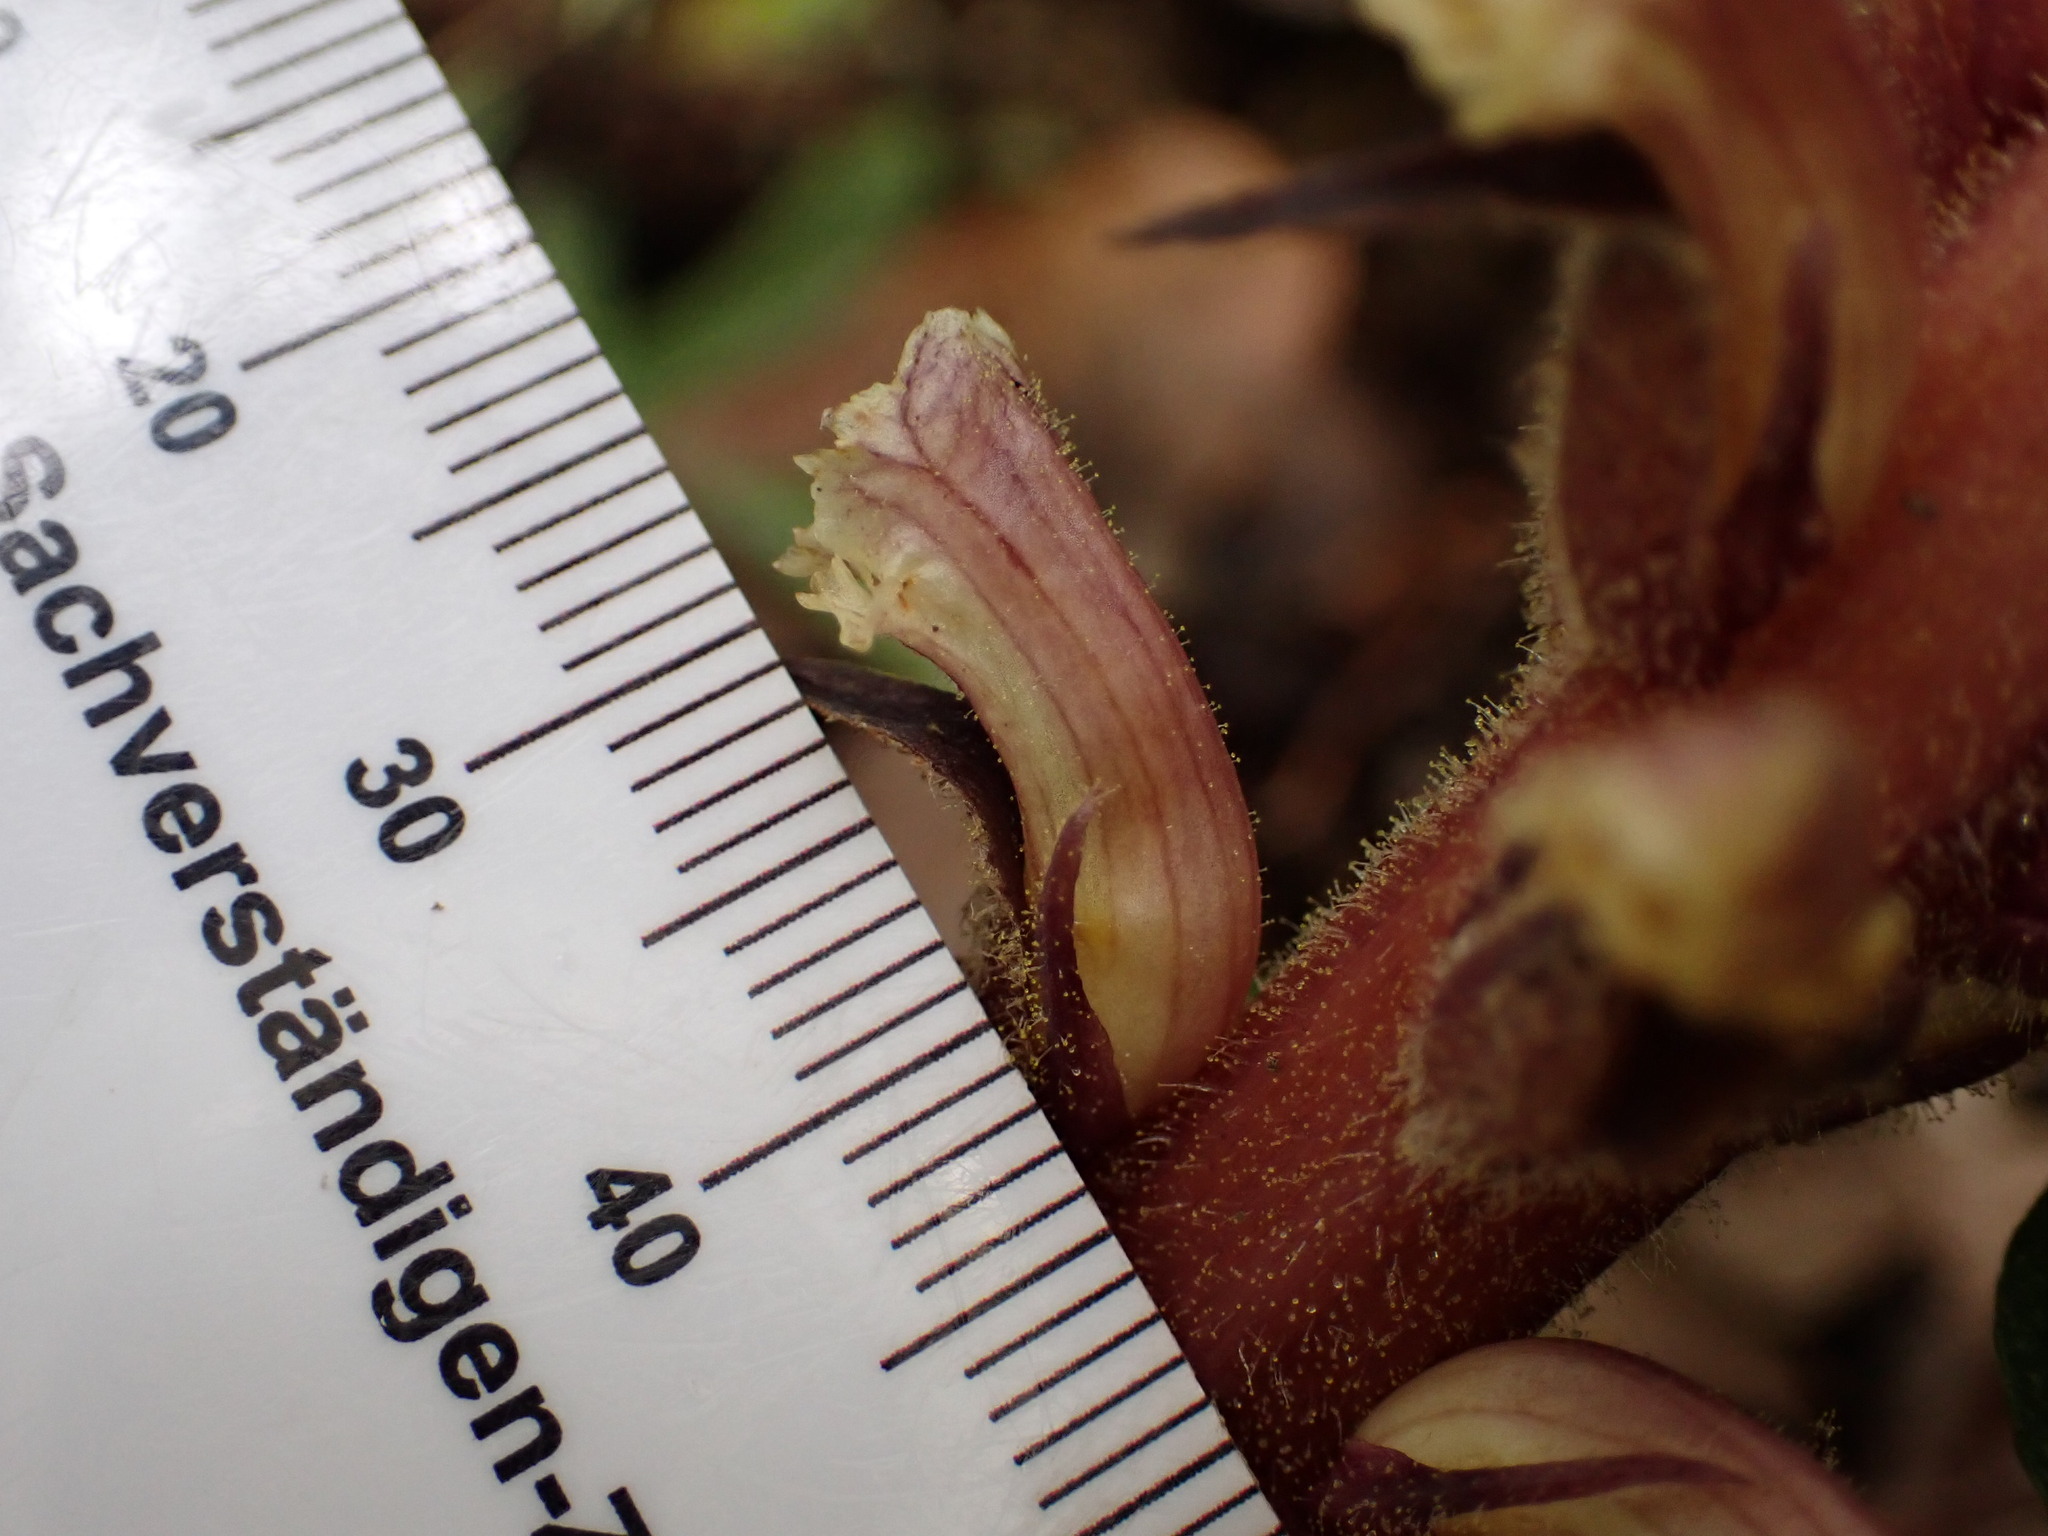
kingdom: Plantae
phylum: Tracheophyta
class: Magnoliopsida
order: Lamiales
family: Orobanchaceae
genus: Orobanche
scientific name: Orobanche hederae
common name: Ivy broomrape
